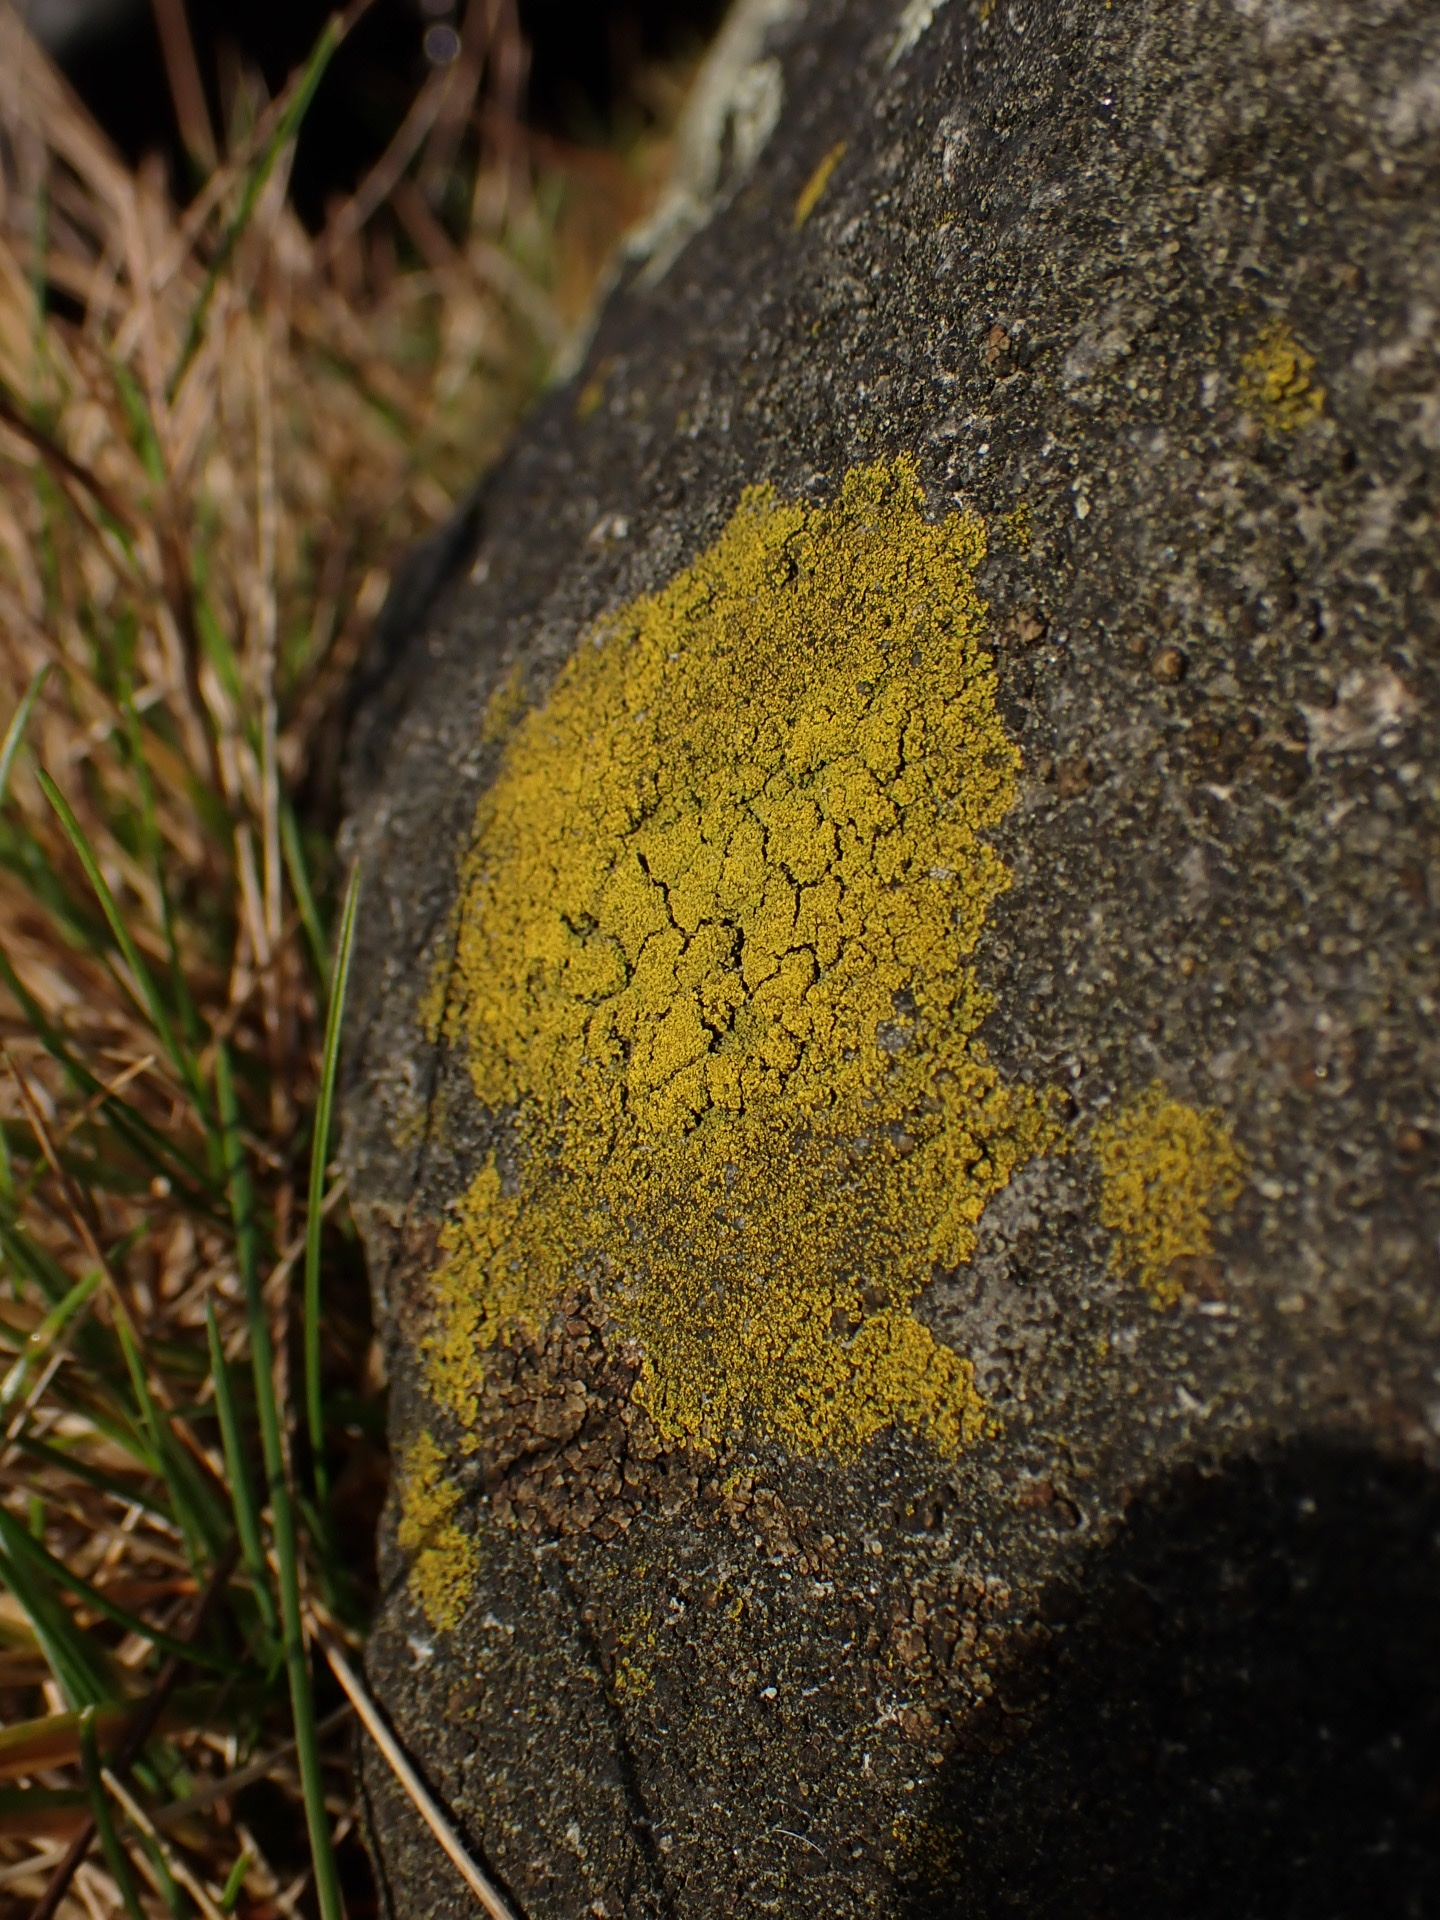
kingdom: Fungi
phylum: Ascomycota
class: Candelariomycetes
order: Candelariales
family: Candelariaceae
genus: Candelariella
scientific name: Candelariella vitellina
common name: Common goldspeck
